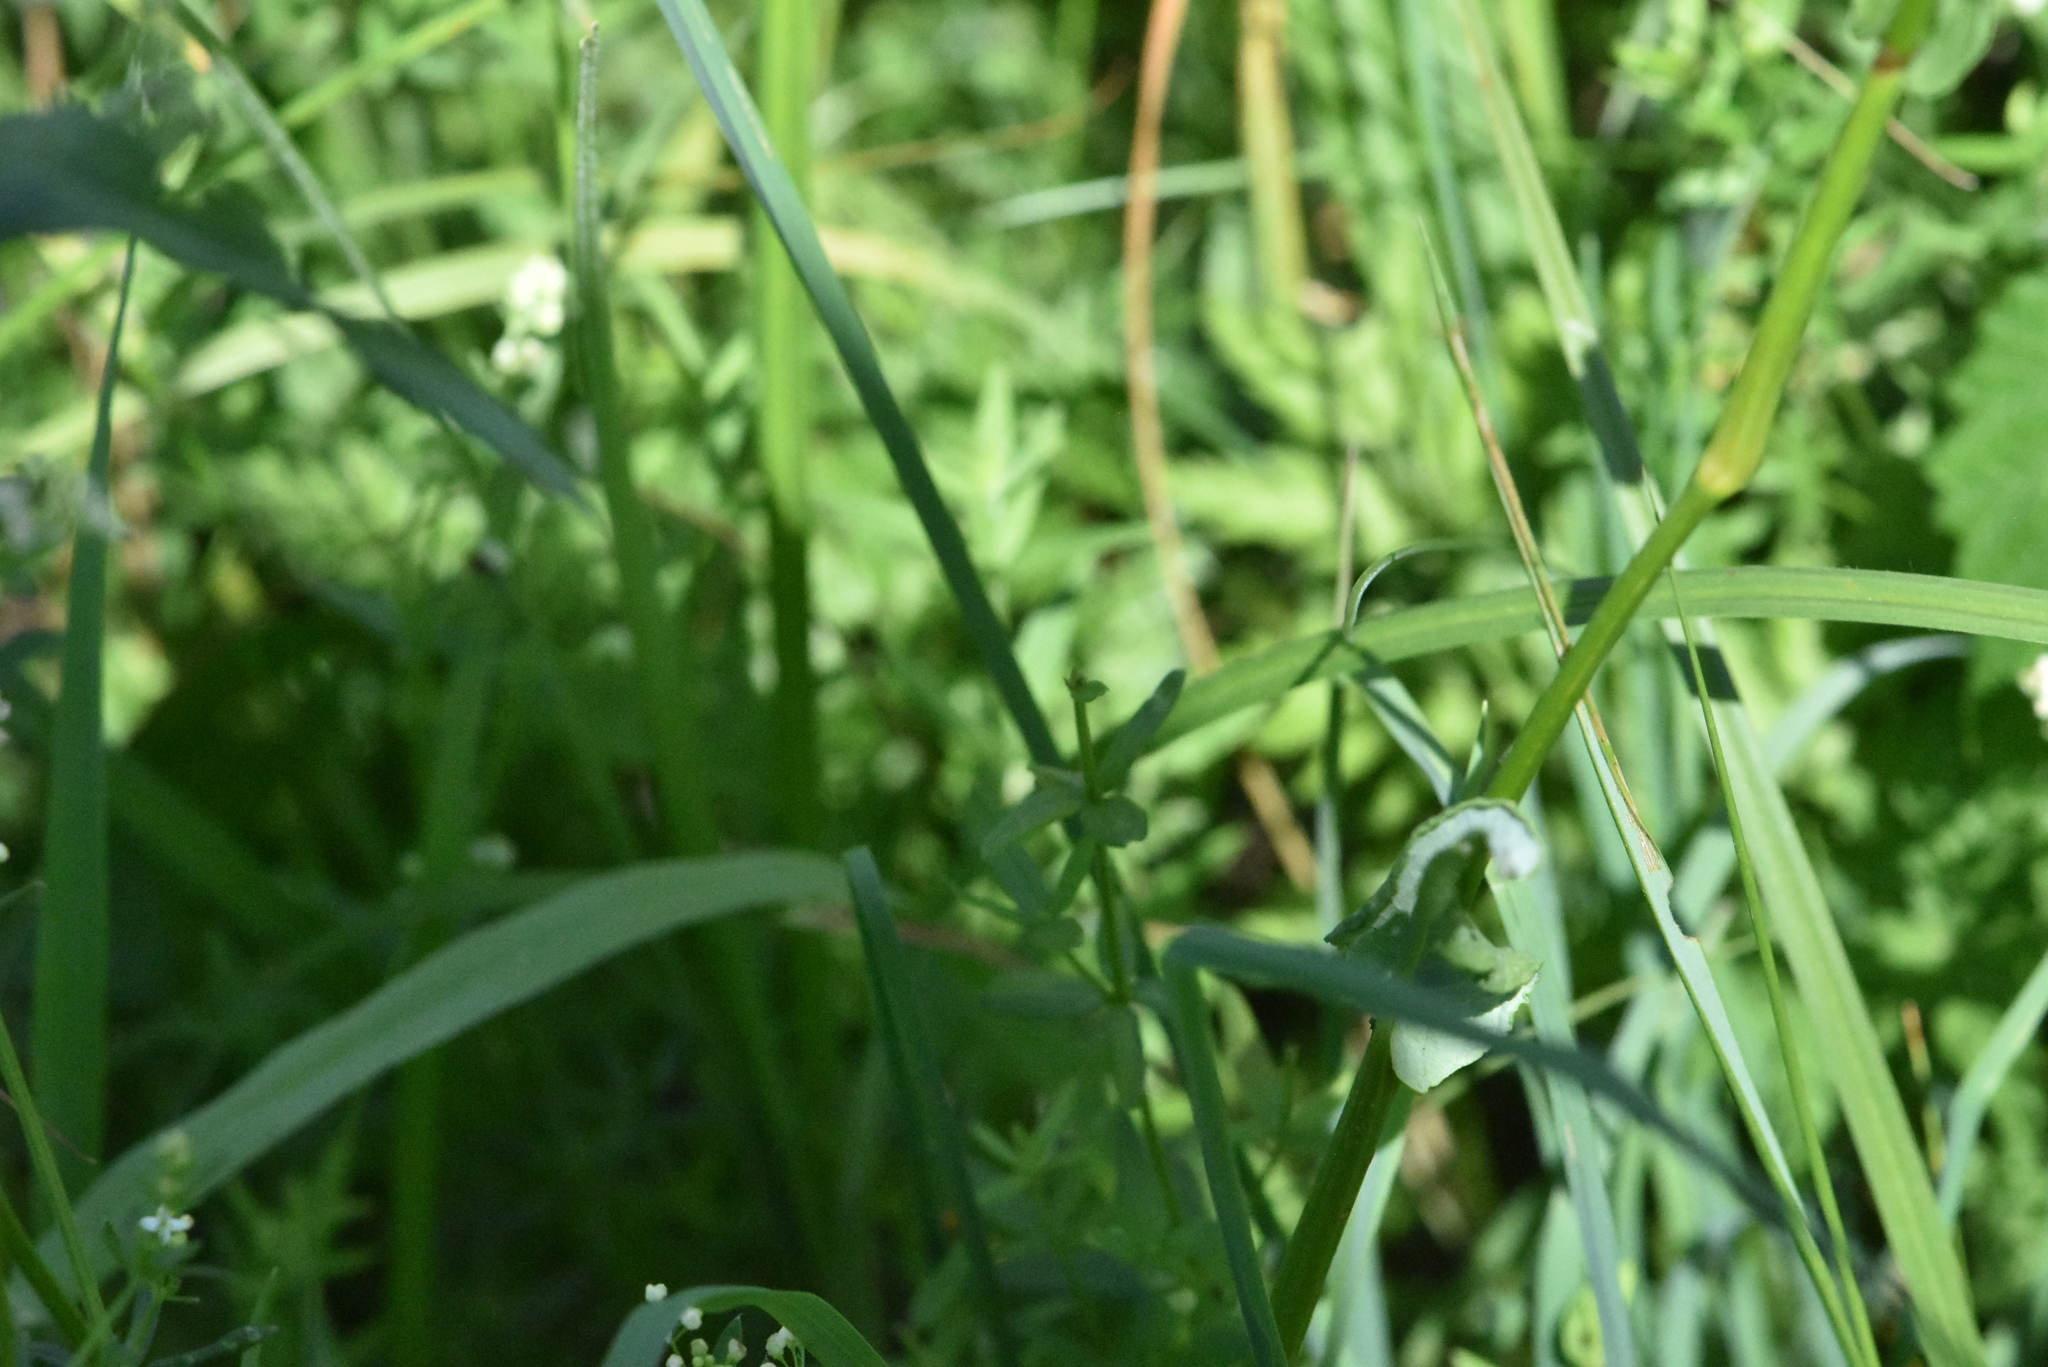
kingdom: Plantae
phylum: Tracheophyta
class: Magnoliopsida
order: Caryophyllales
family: Polygonaceae
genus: Bistorta
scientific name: Bistorta officinalis
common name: Common bistort
